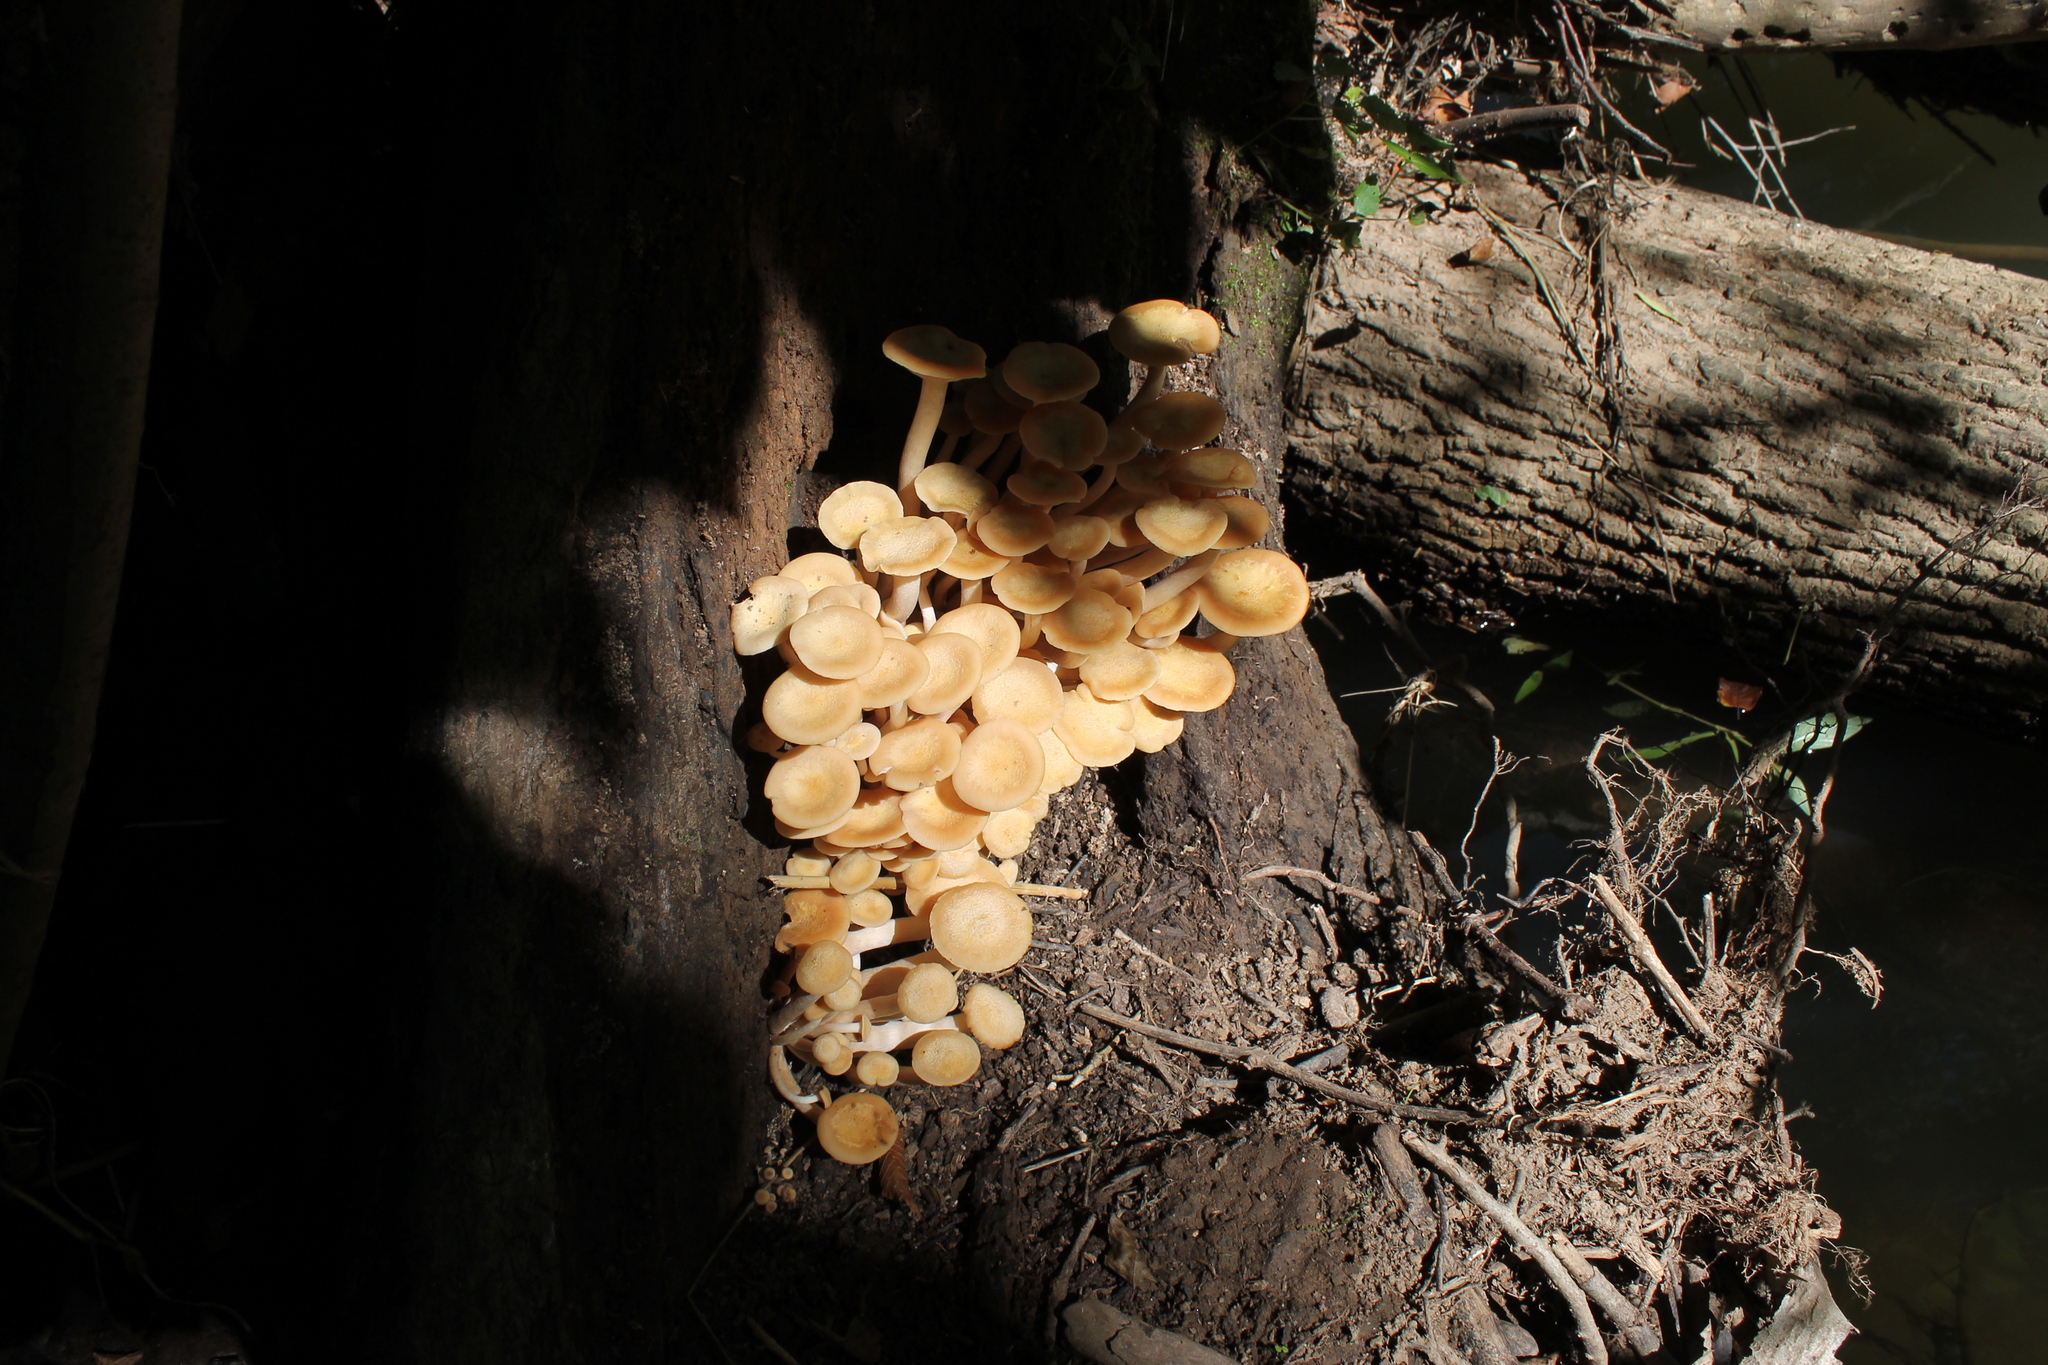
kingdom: Fungi
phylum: Basidiomycota
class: Agaricomycetes
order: Agaricales
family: Physalacriaceae
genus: Desarmillaria
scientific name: Desarmillaria caespitosa
